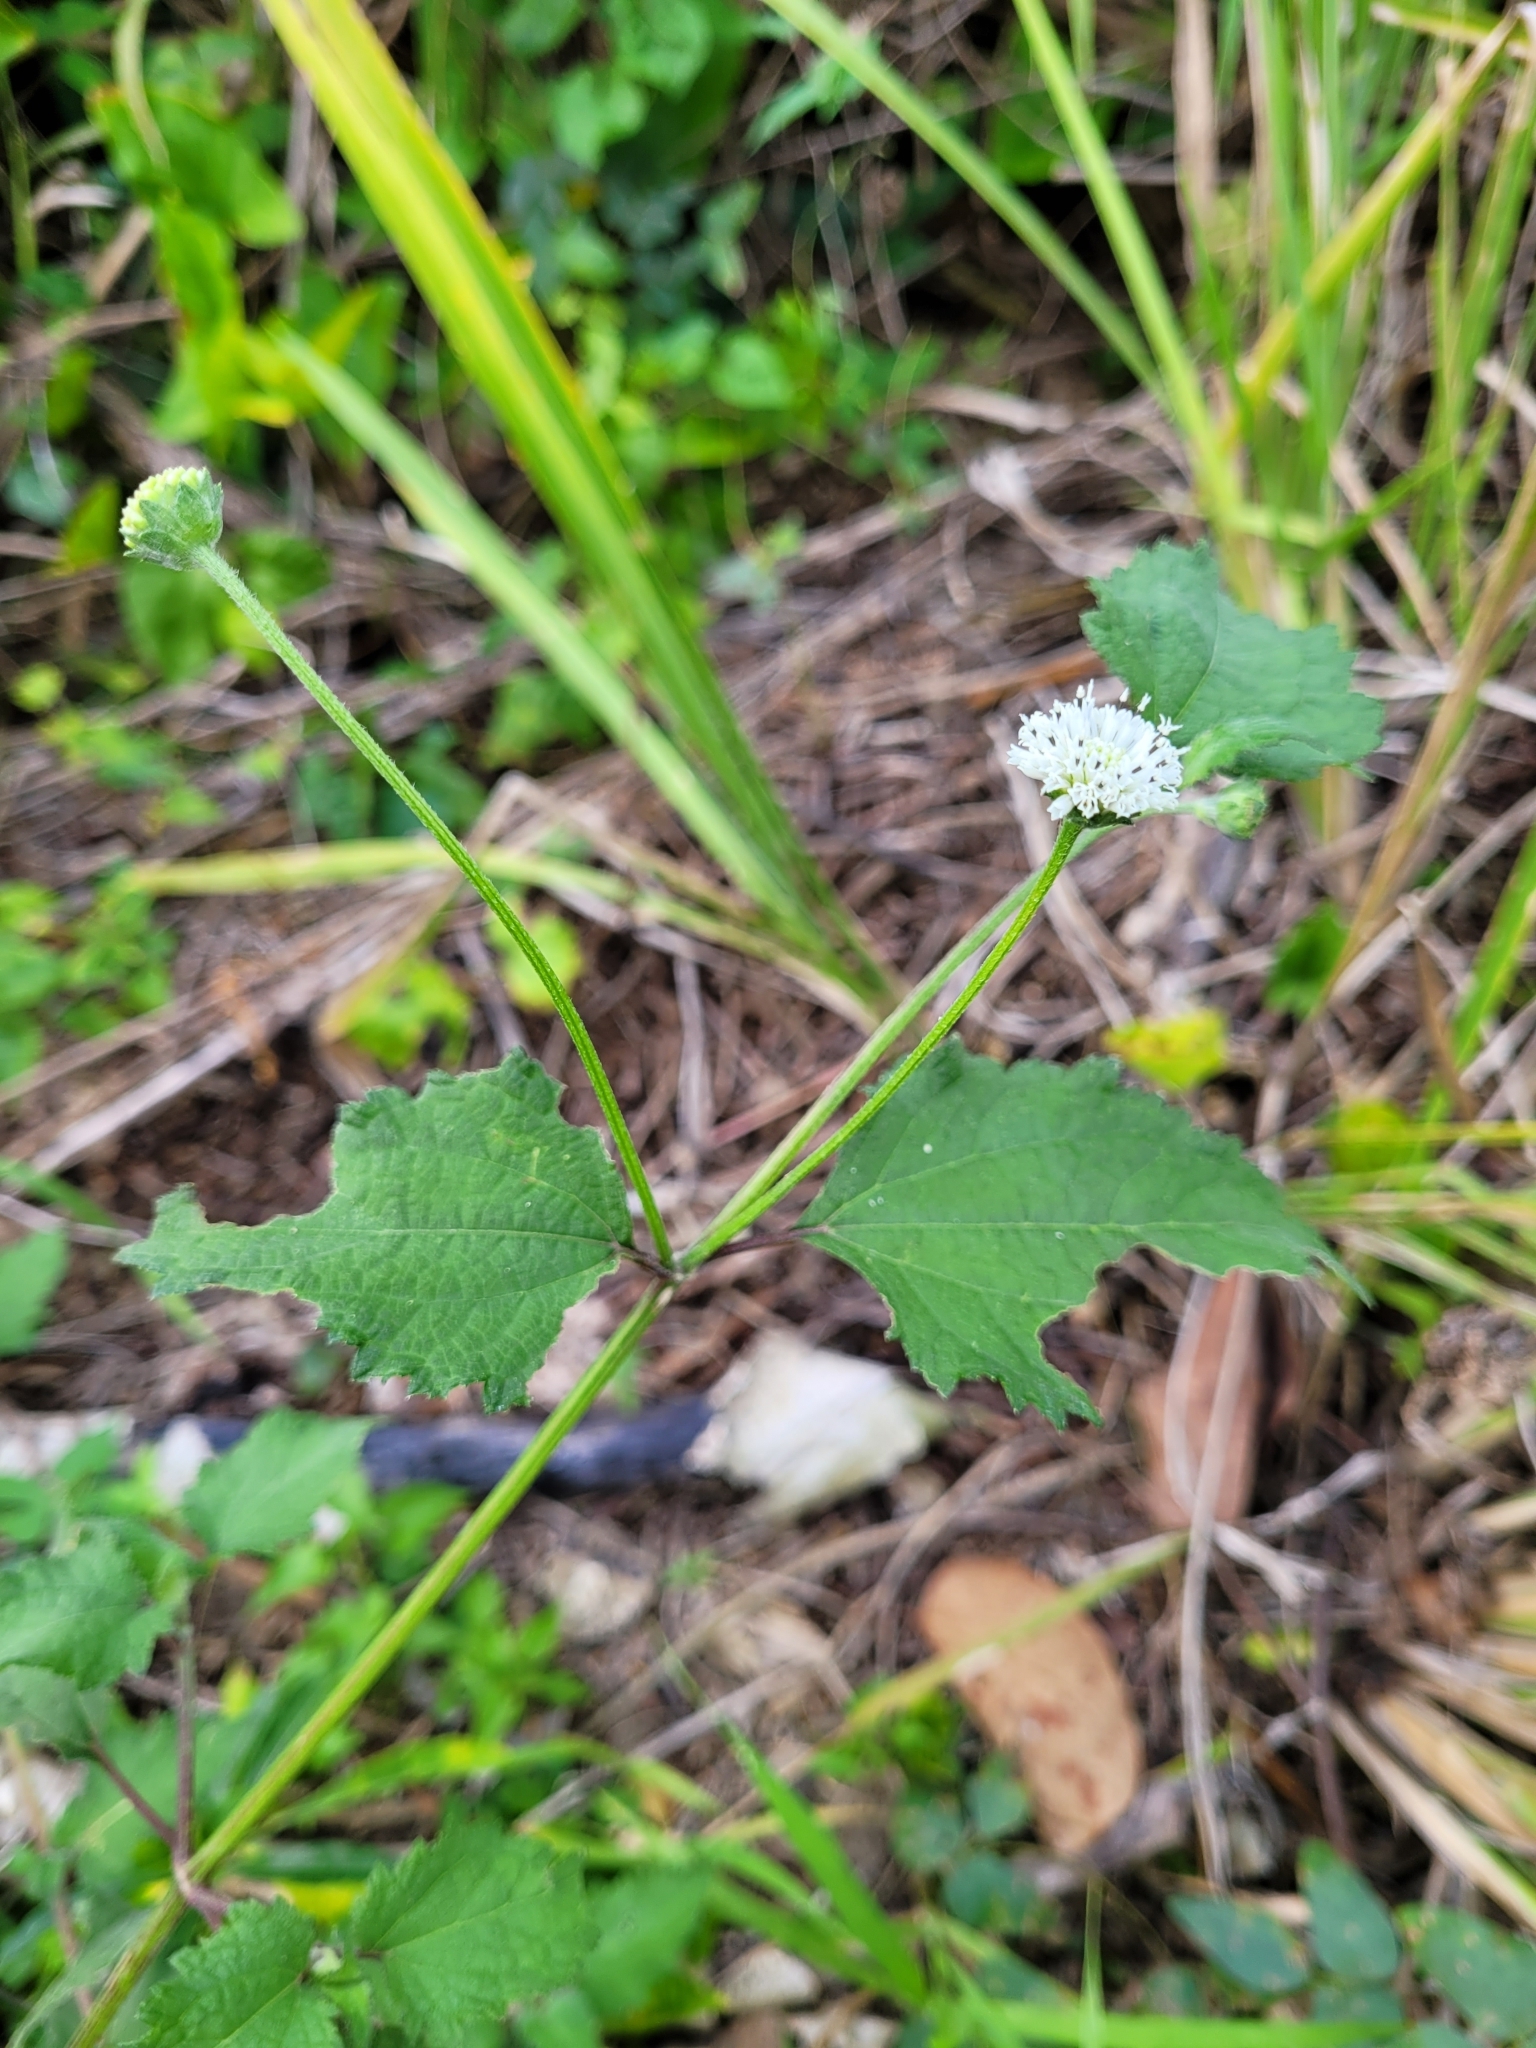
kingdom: Plantae
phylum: Tracheophyta
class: Magnoliopsida
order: Asterales
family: Asteraceae
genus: Melanthera
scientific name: Melanthera nivea
